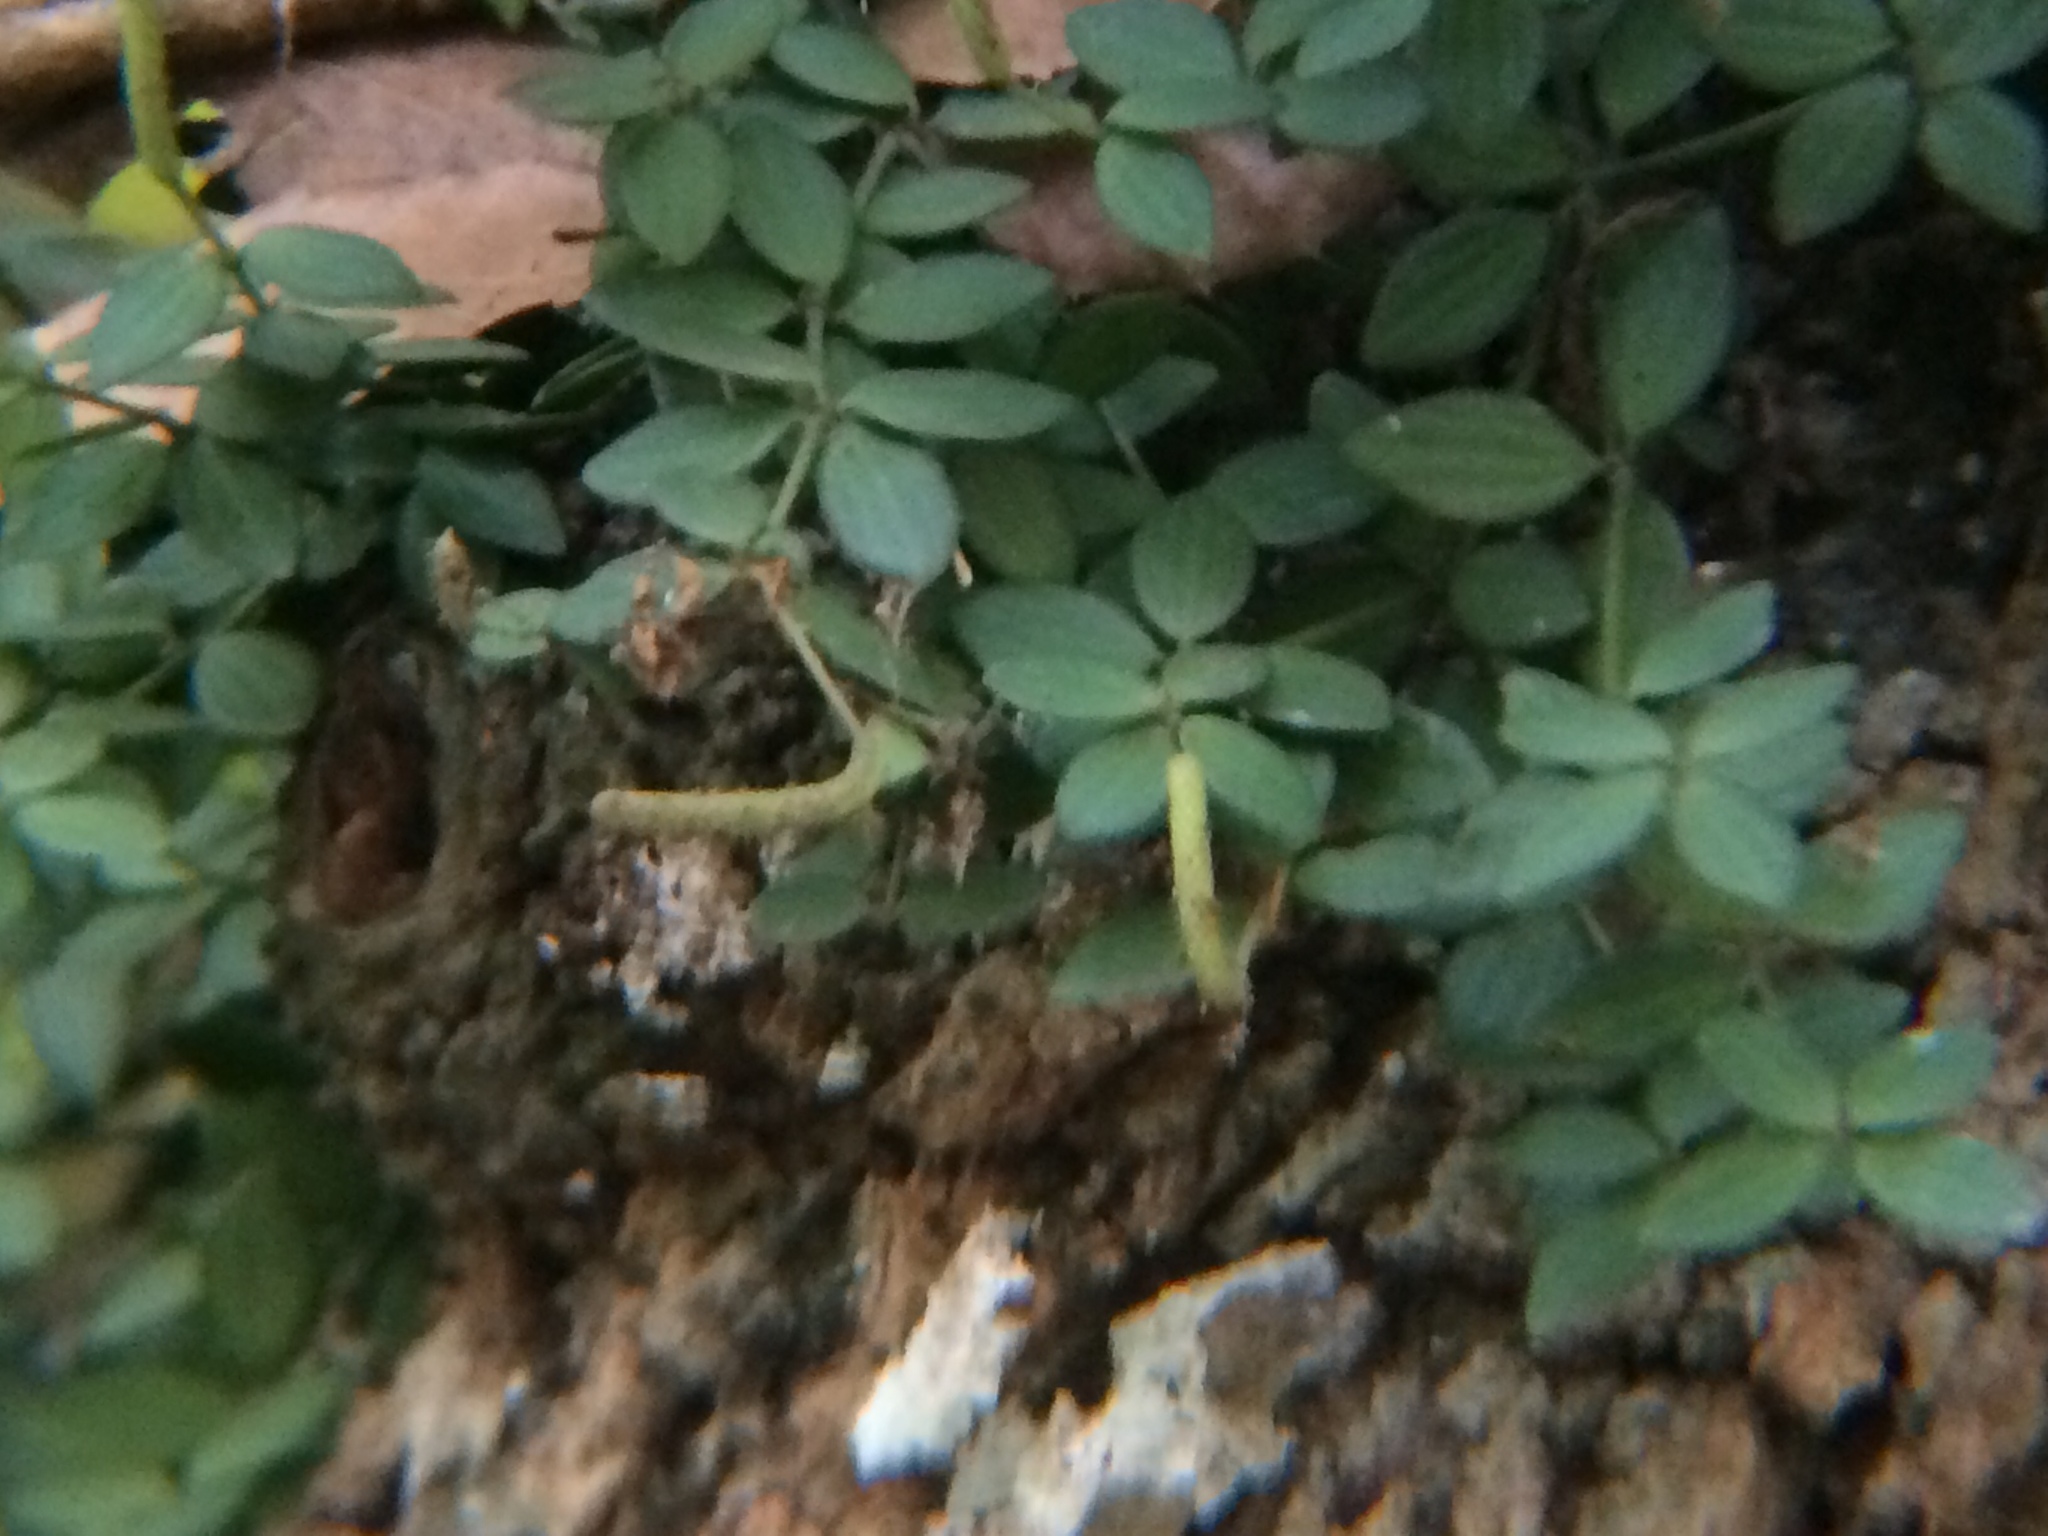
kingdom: Plantae
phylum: Tracheophyta
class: Magnoliopsida
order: Piperales
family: Piperaceae
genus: Peperomia
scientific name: Peperomia tetraphylla
